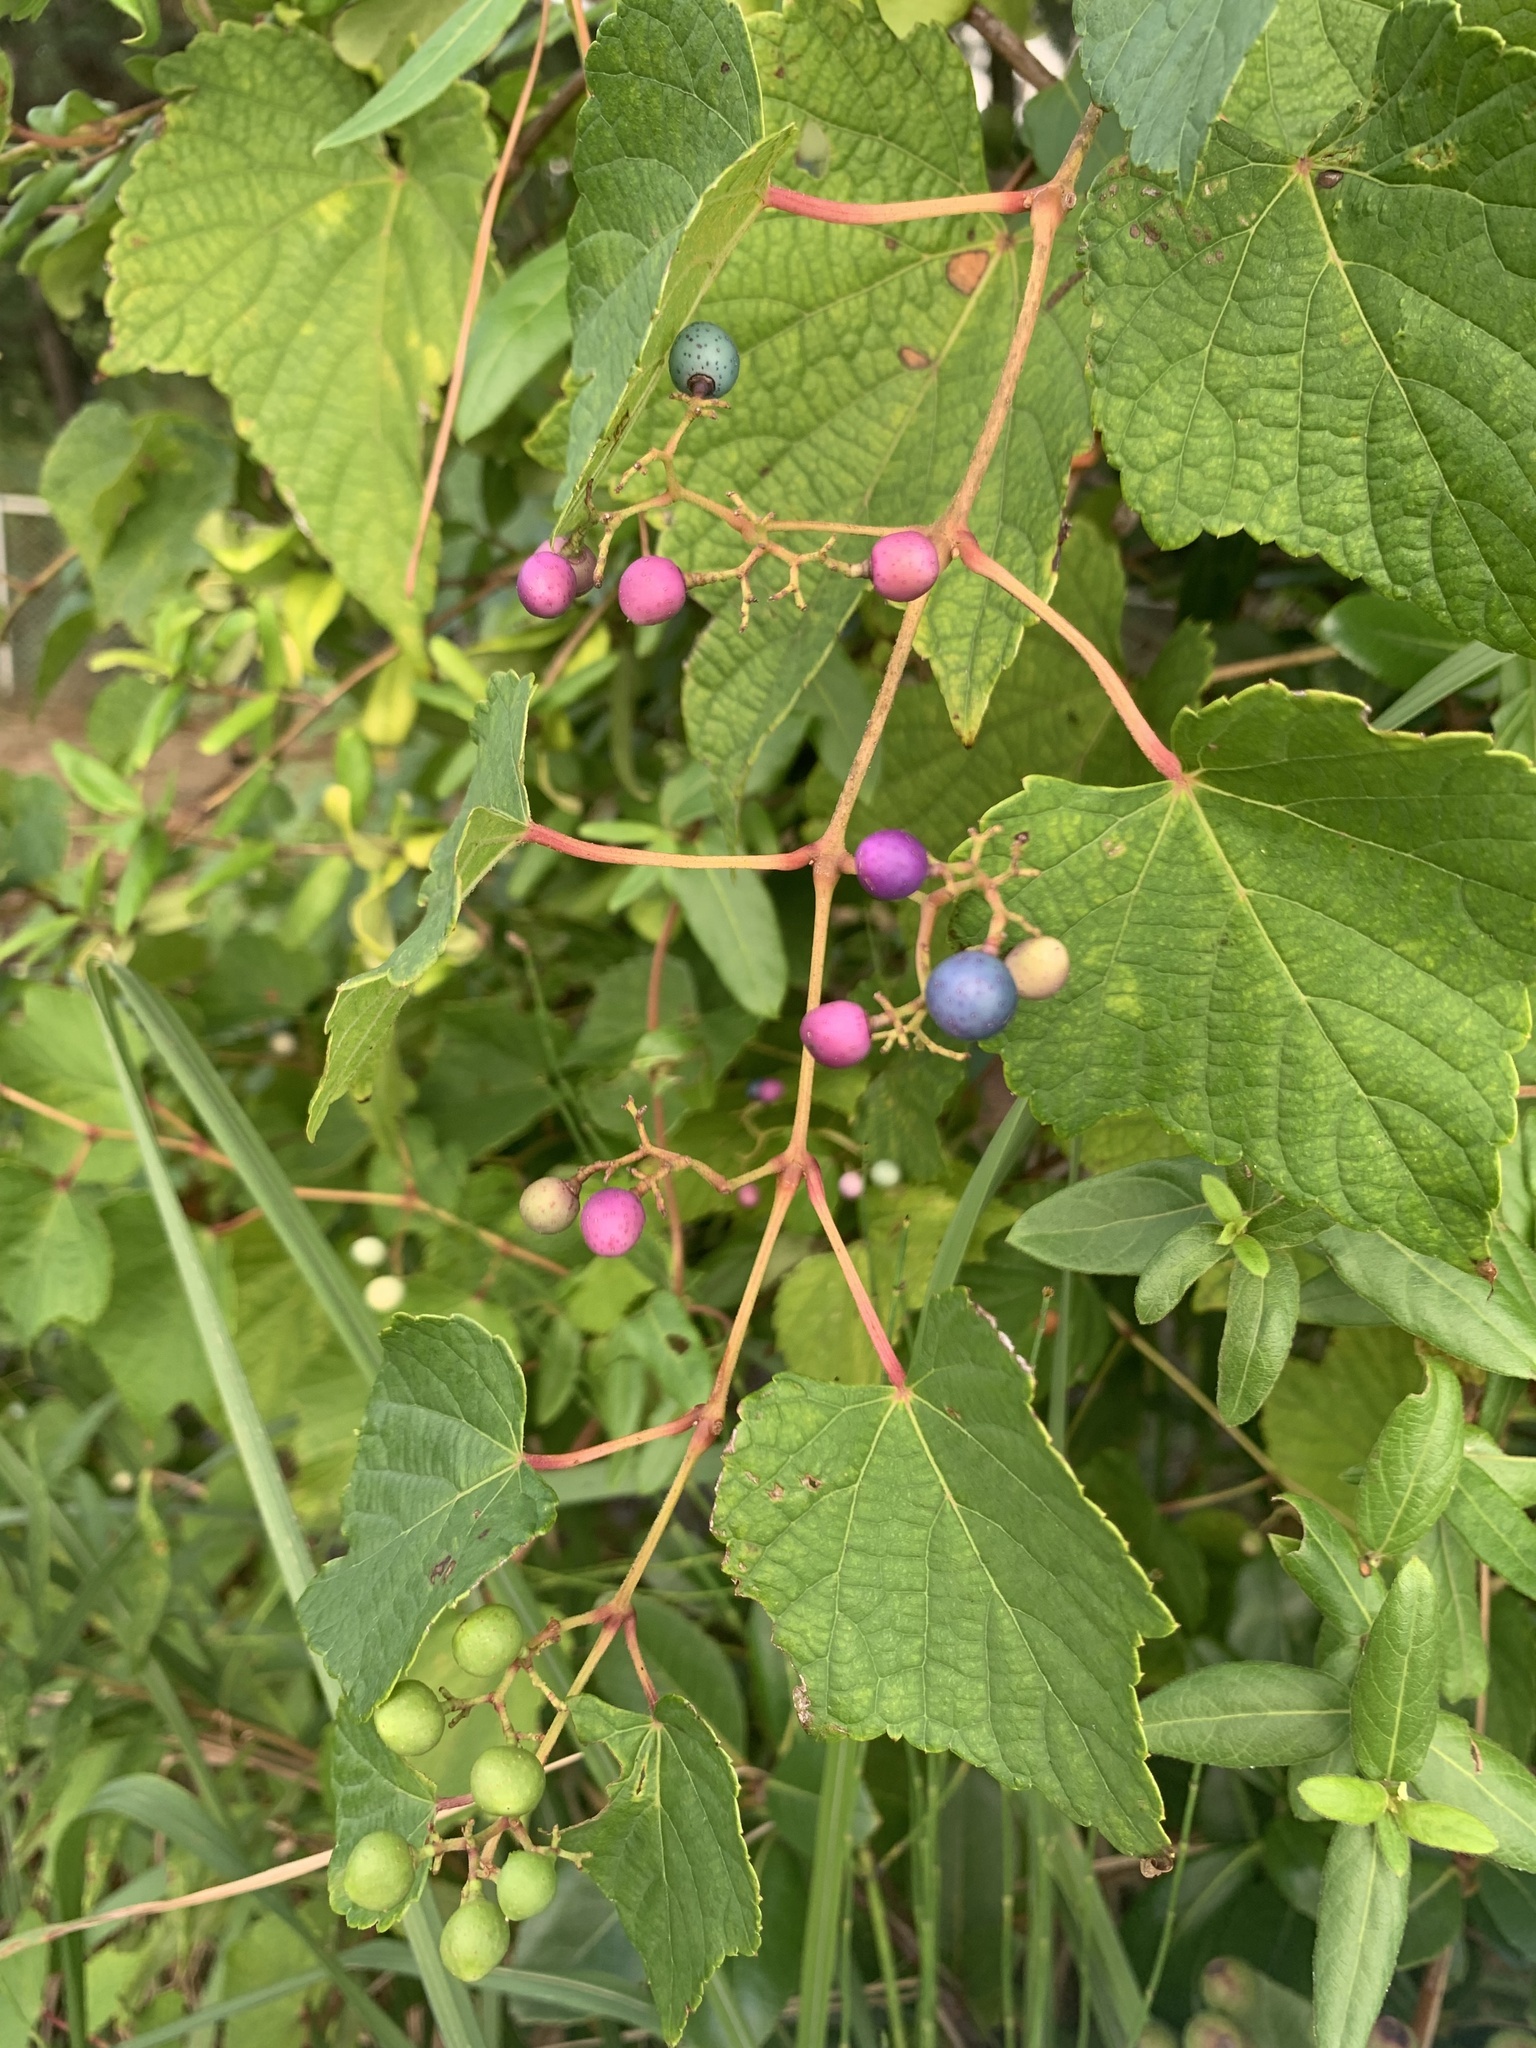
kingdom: Plantae
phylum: Tracheophyta
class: Magnoliopsida
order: Vitales
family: Vitaceae
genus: Ampelopsis
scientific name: Ampelopsis glandulosa
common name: Amur peppervine
